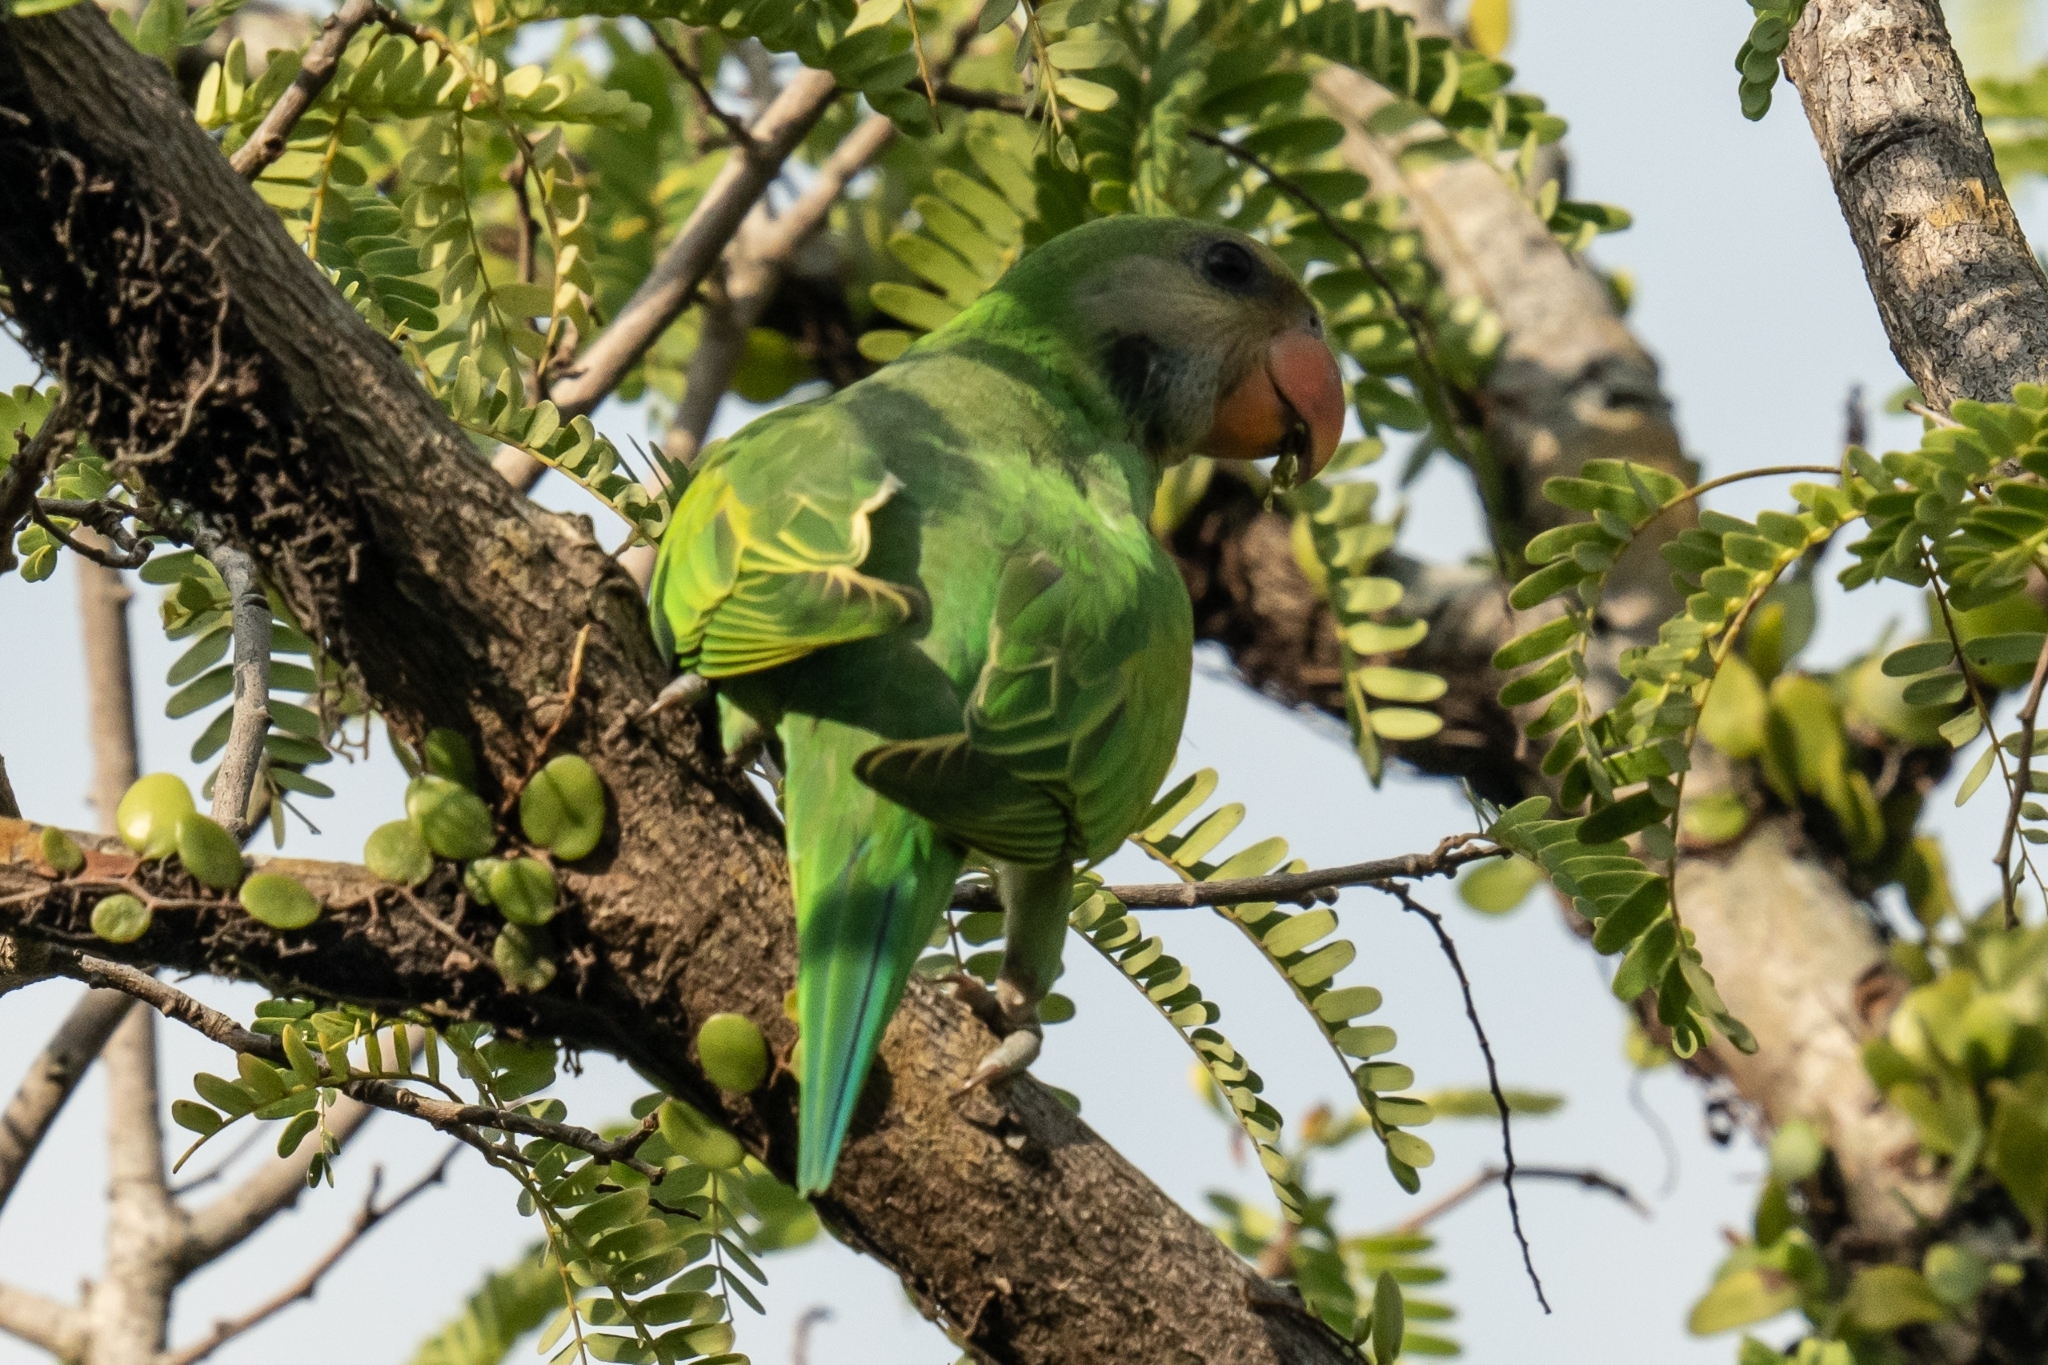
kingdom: Animalia
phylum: Chordata
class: Aves
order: Psittaciformes
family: Psittacidae
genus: Psittacula
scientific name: Psittacula alexandri
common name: Red-breasted parakeet
